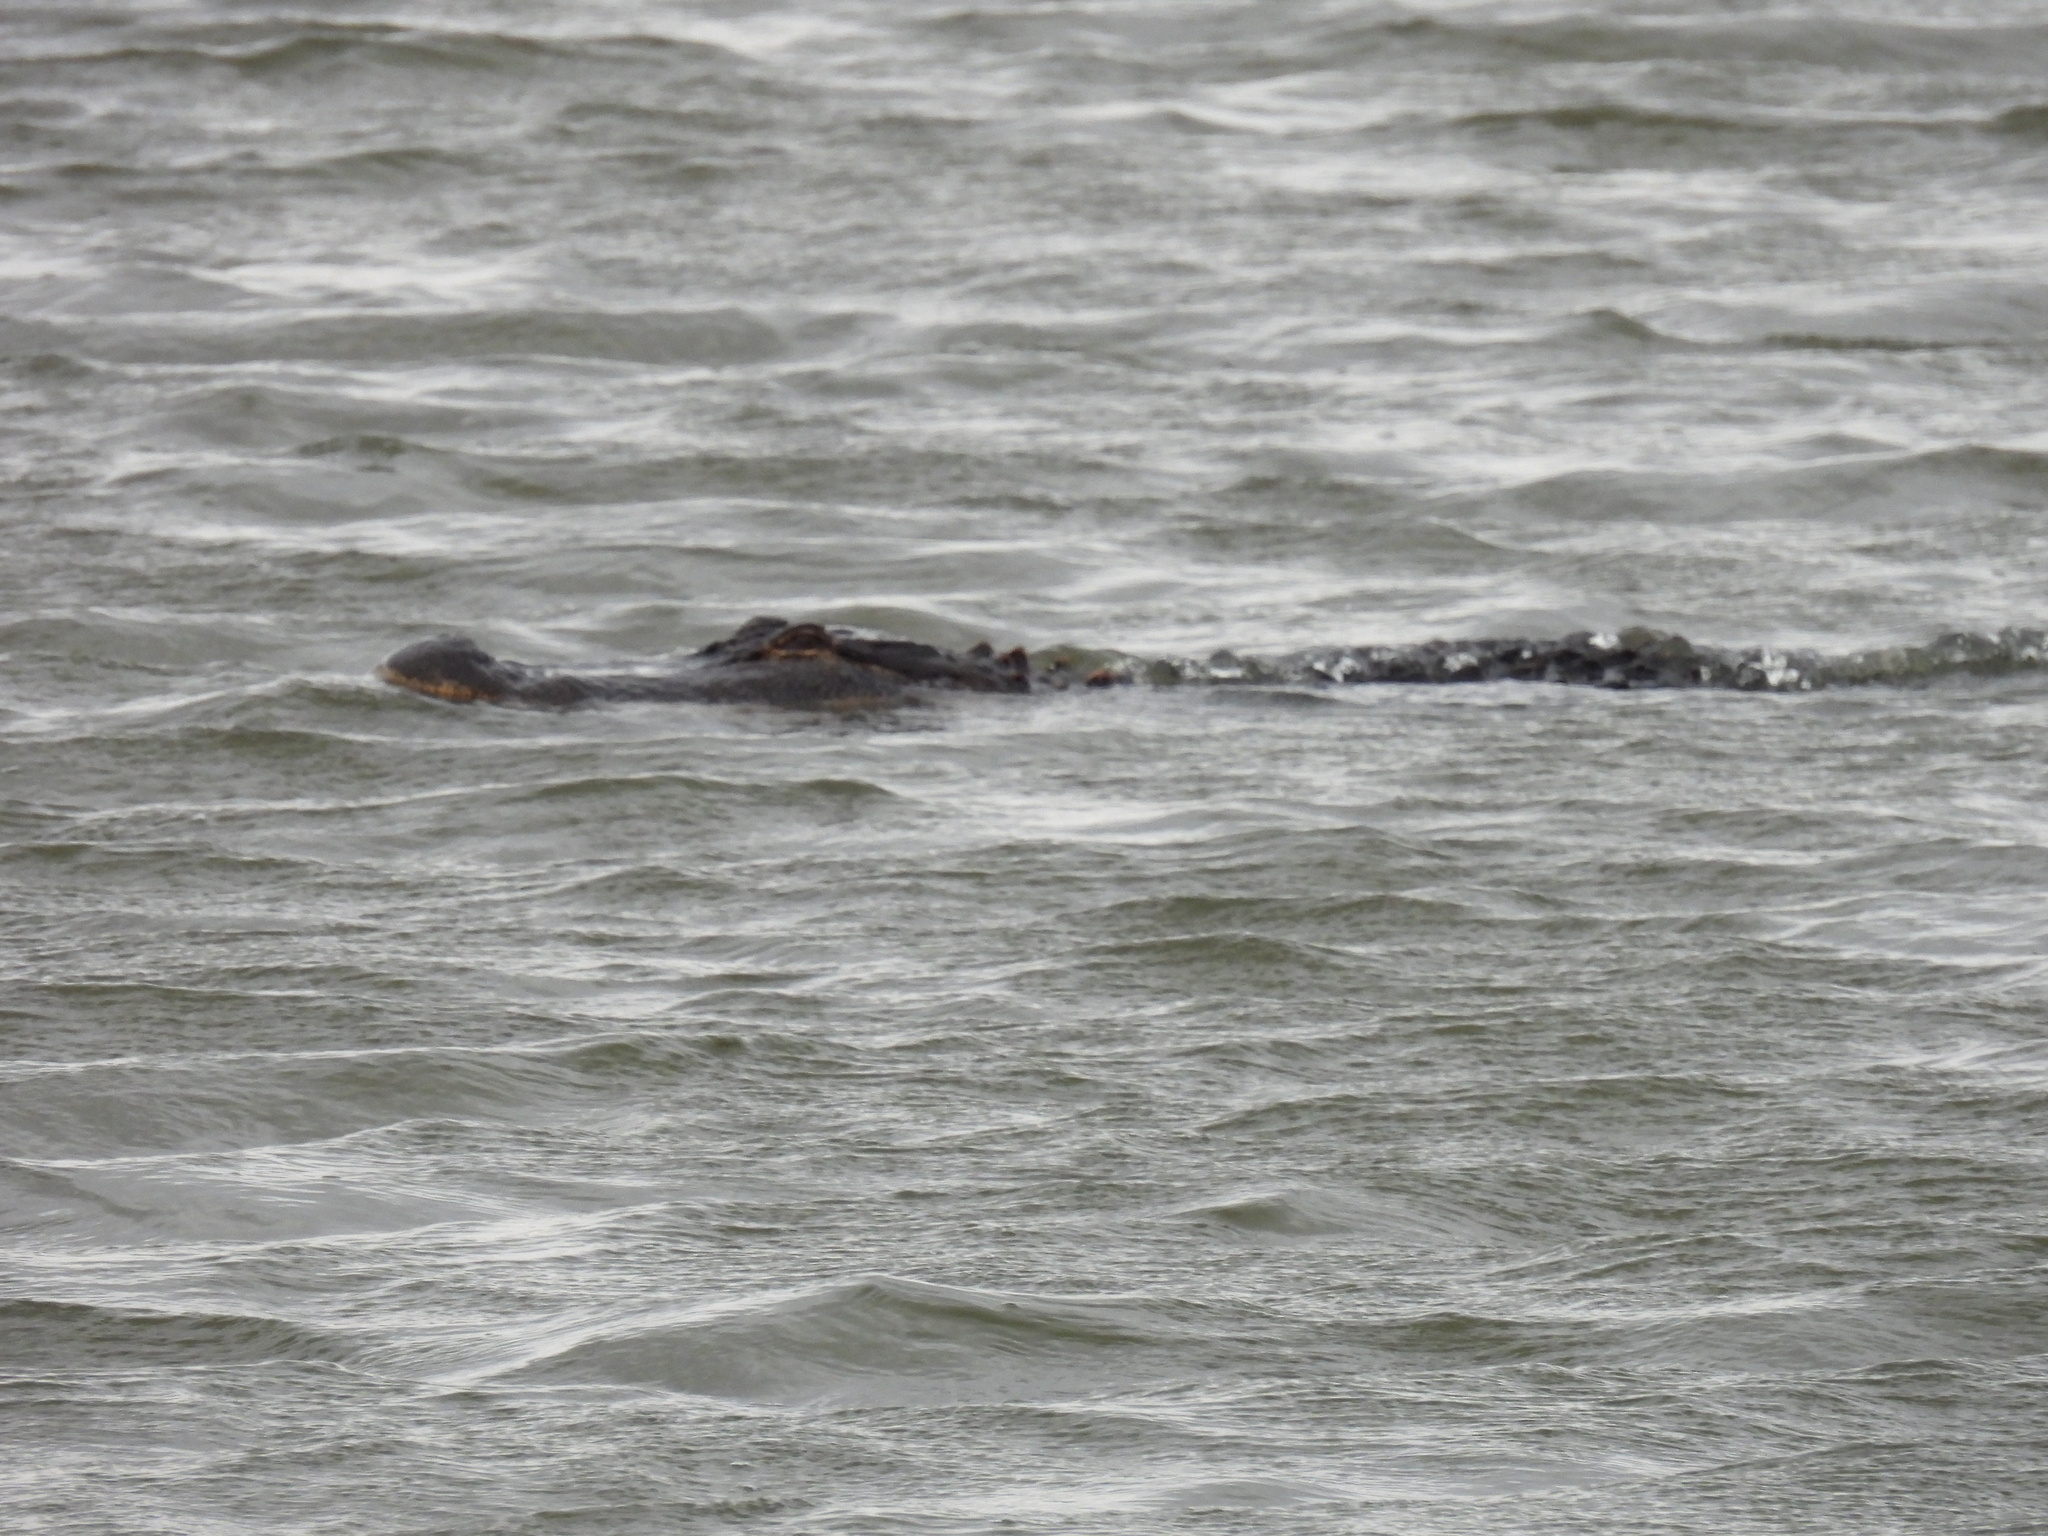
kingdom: Animalia
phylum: Chordata
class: Crocodylia
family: Alligatoridae
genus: Alligator
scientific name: Alligator mississippiensis
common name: American alligator
